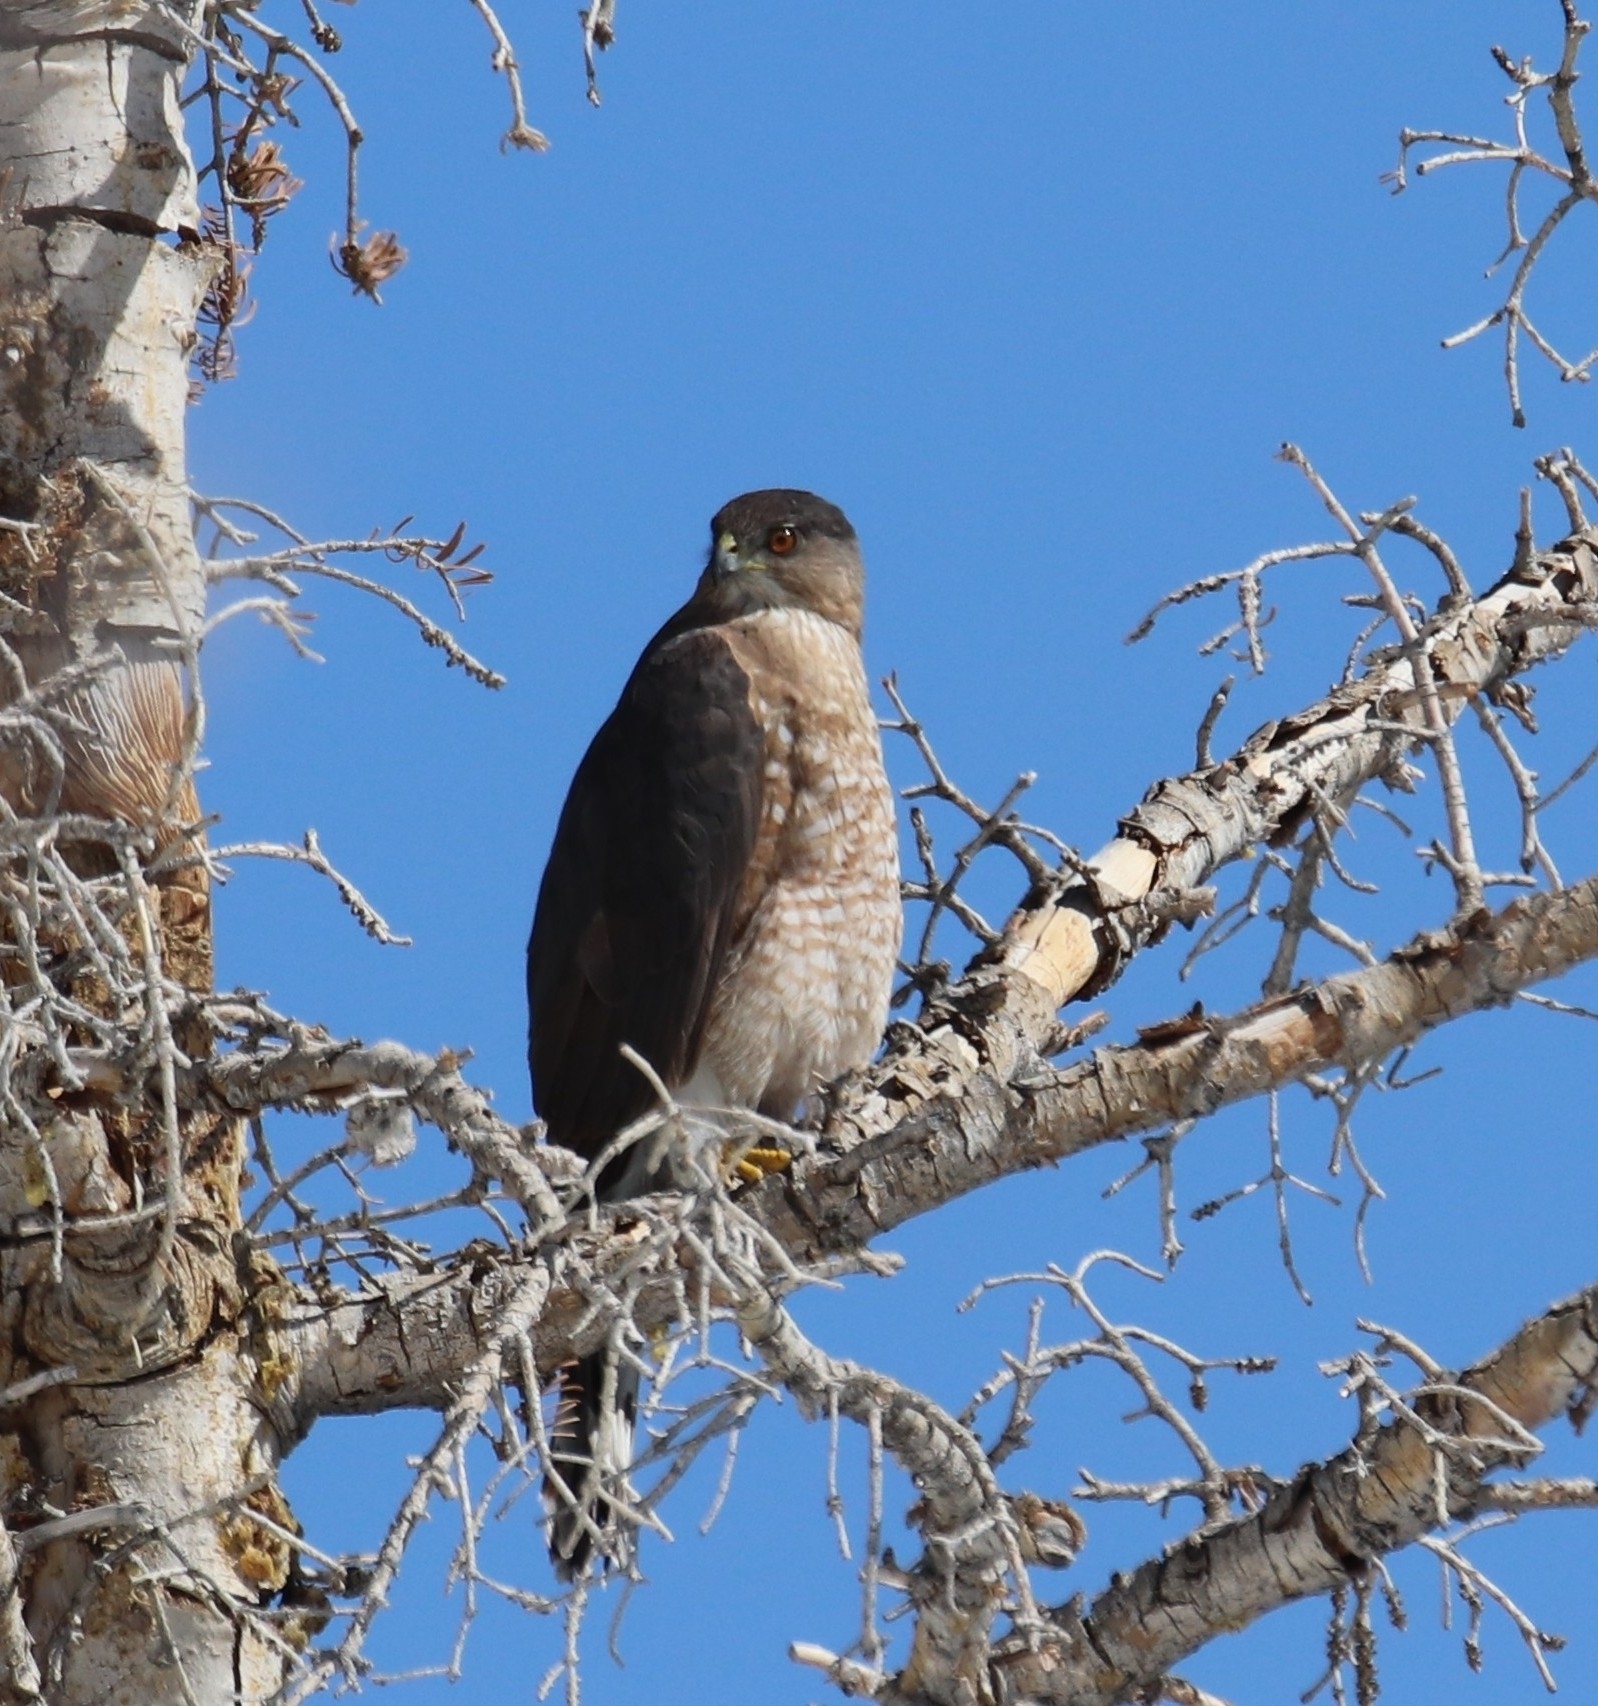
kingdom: Animalia
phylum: Chordata
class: Aves
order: Accipitriformes
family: Accipitridae
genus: Accipiter
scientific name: Accipiter cooperii
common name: Cooper's hawk
